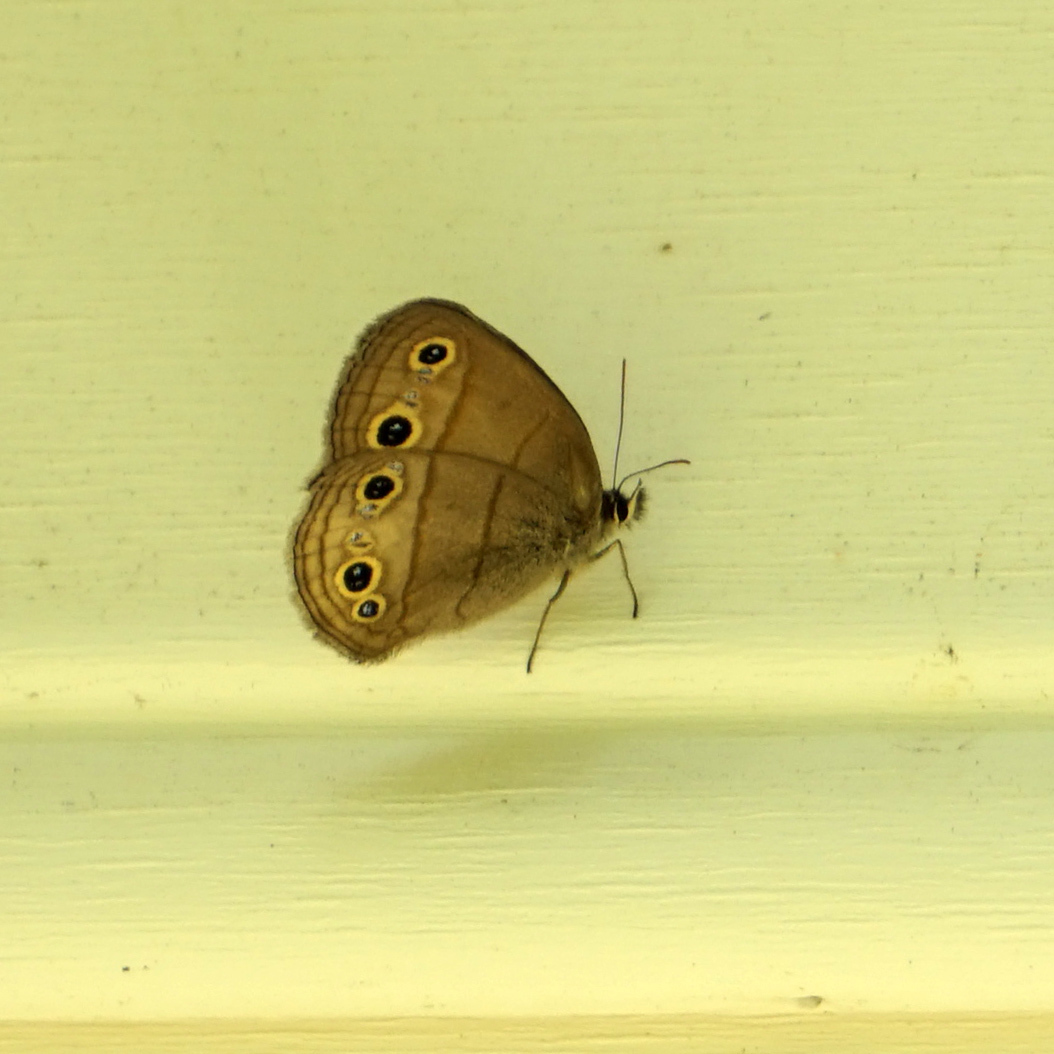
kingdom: Animalia
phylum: Arthropoda
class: Insecta
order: Lepidoptera
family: Nymphalidae
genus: Euptychia
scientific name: Euptychia cymela
